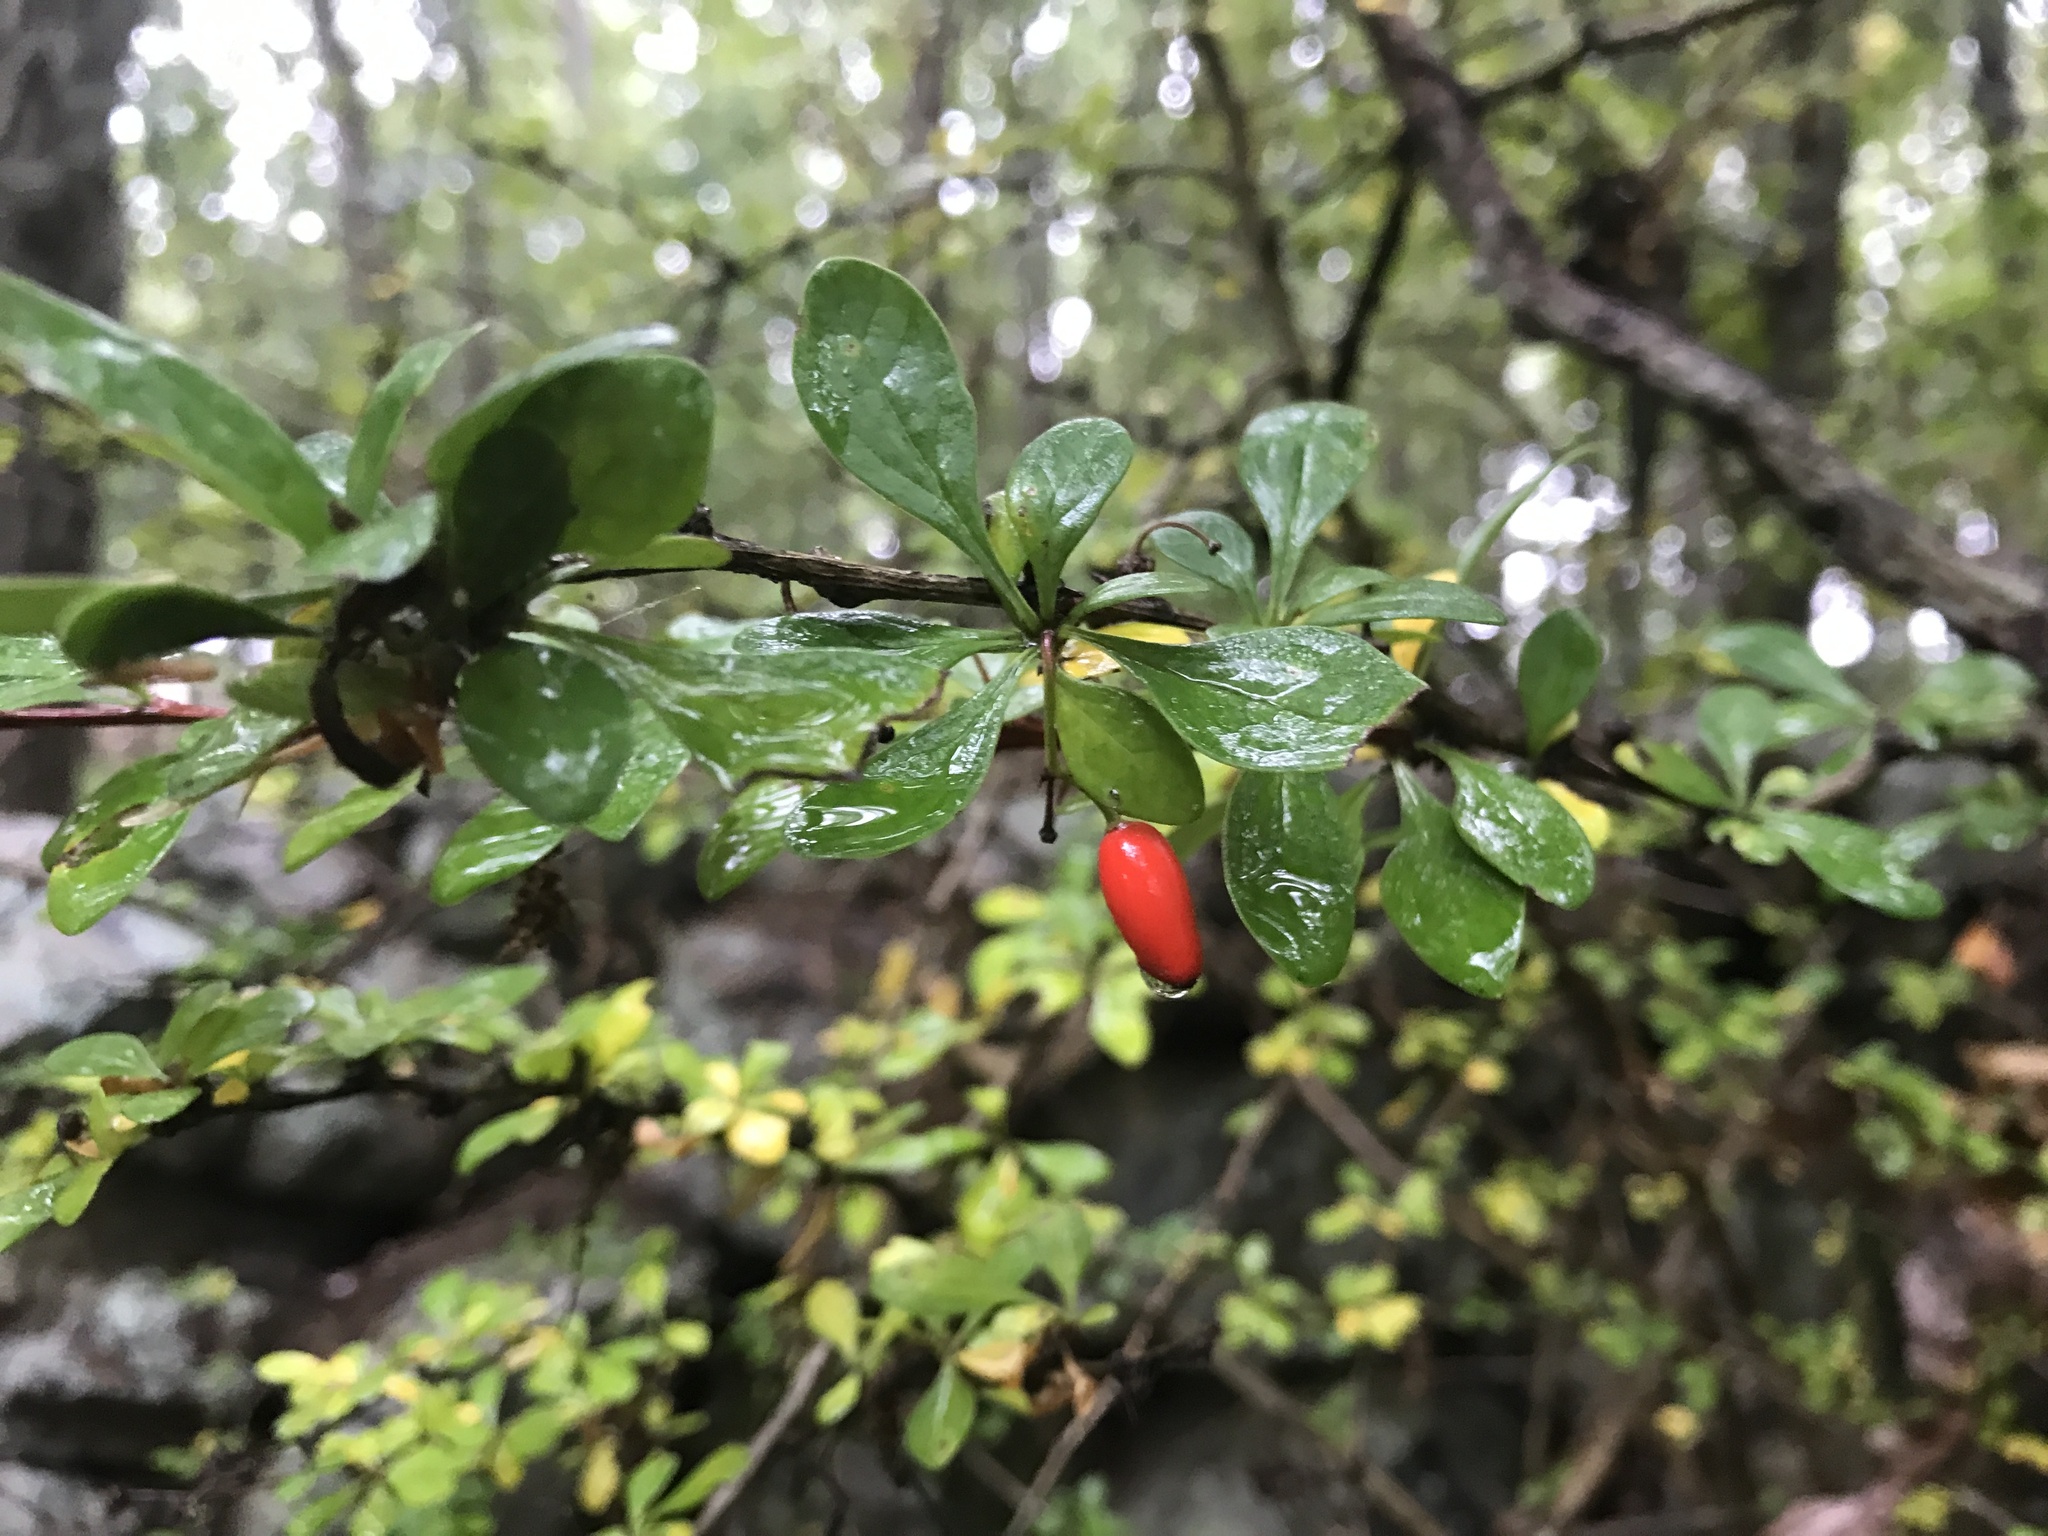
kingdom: Plantae
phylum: Tracheophyta
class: Magnoliopsida
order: Ranunculales
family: Berberidaceae
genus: Berberis
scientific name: Berberis thunbergii
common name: Japanese barberry
